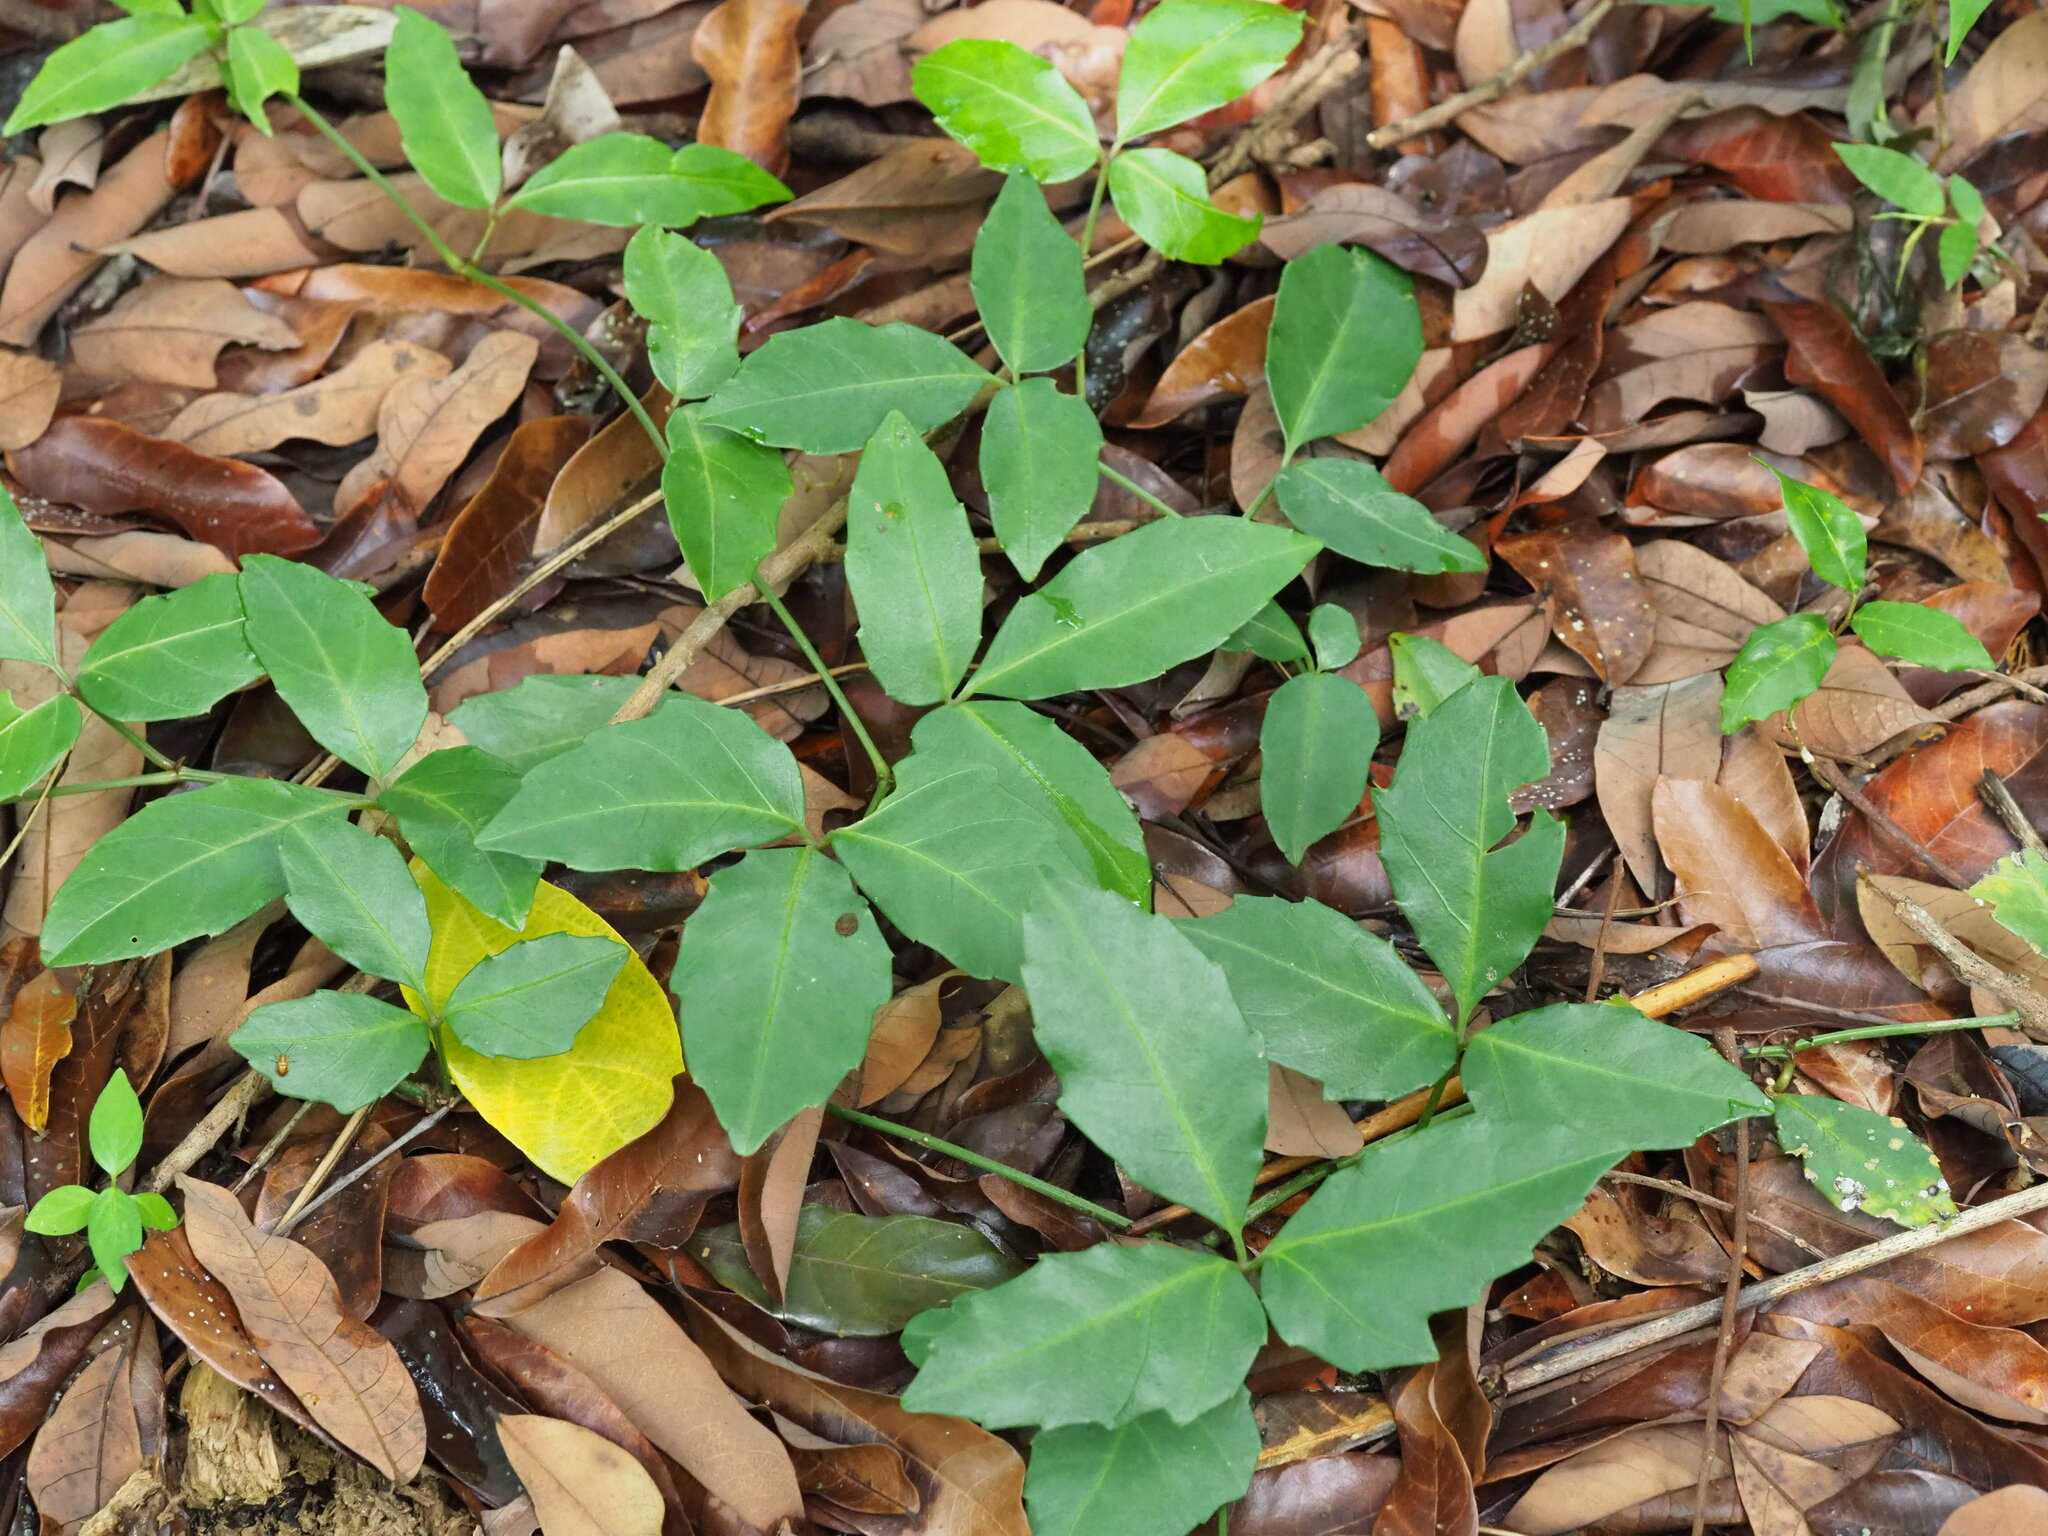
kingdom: Plantae
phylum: Tracheophyta
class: Magnoliopsida
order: Vitales
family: Vitaceae
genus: Tetrastigma
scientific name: Tetrastigma formosanum
